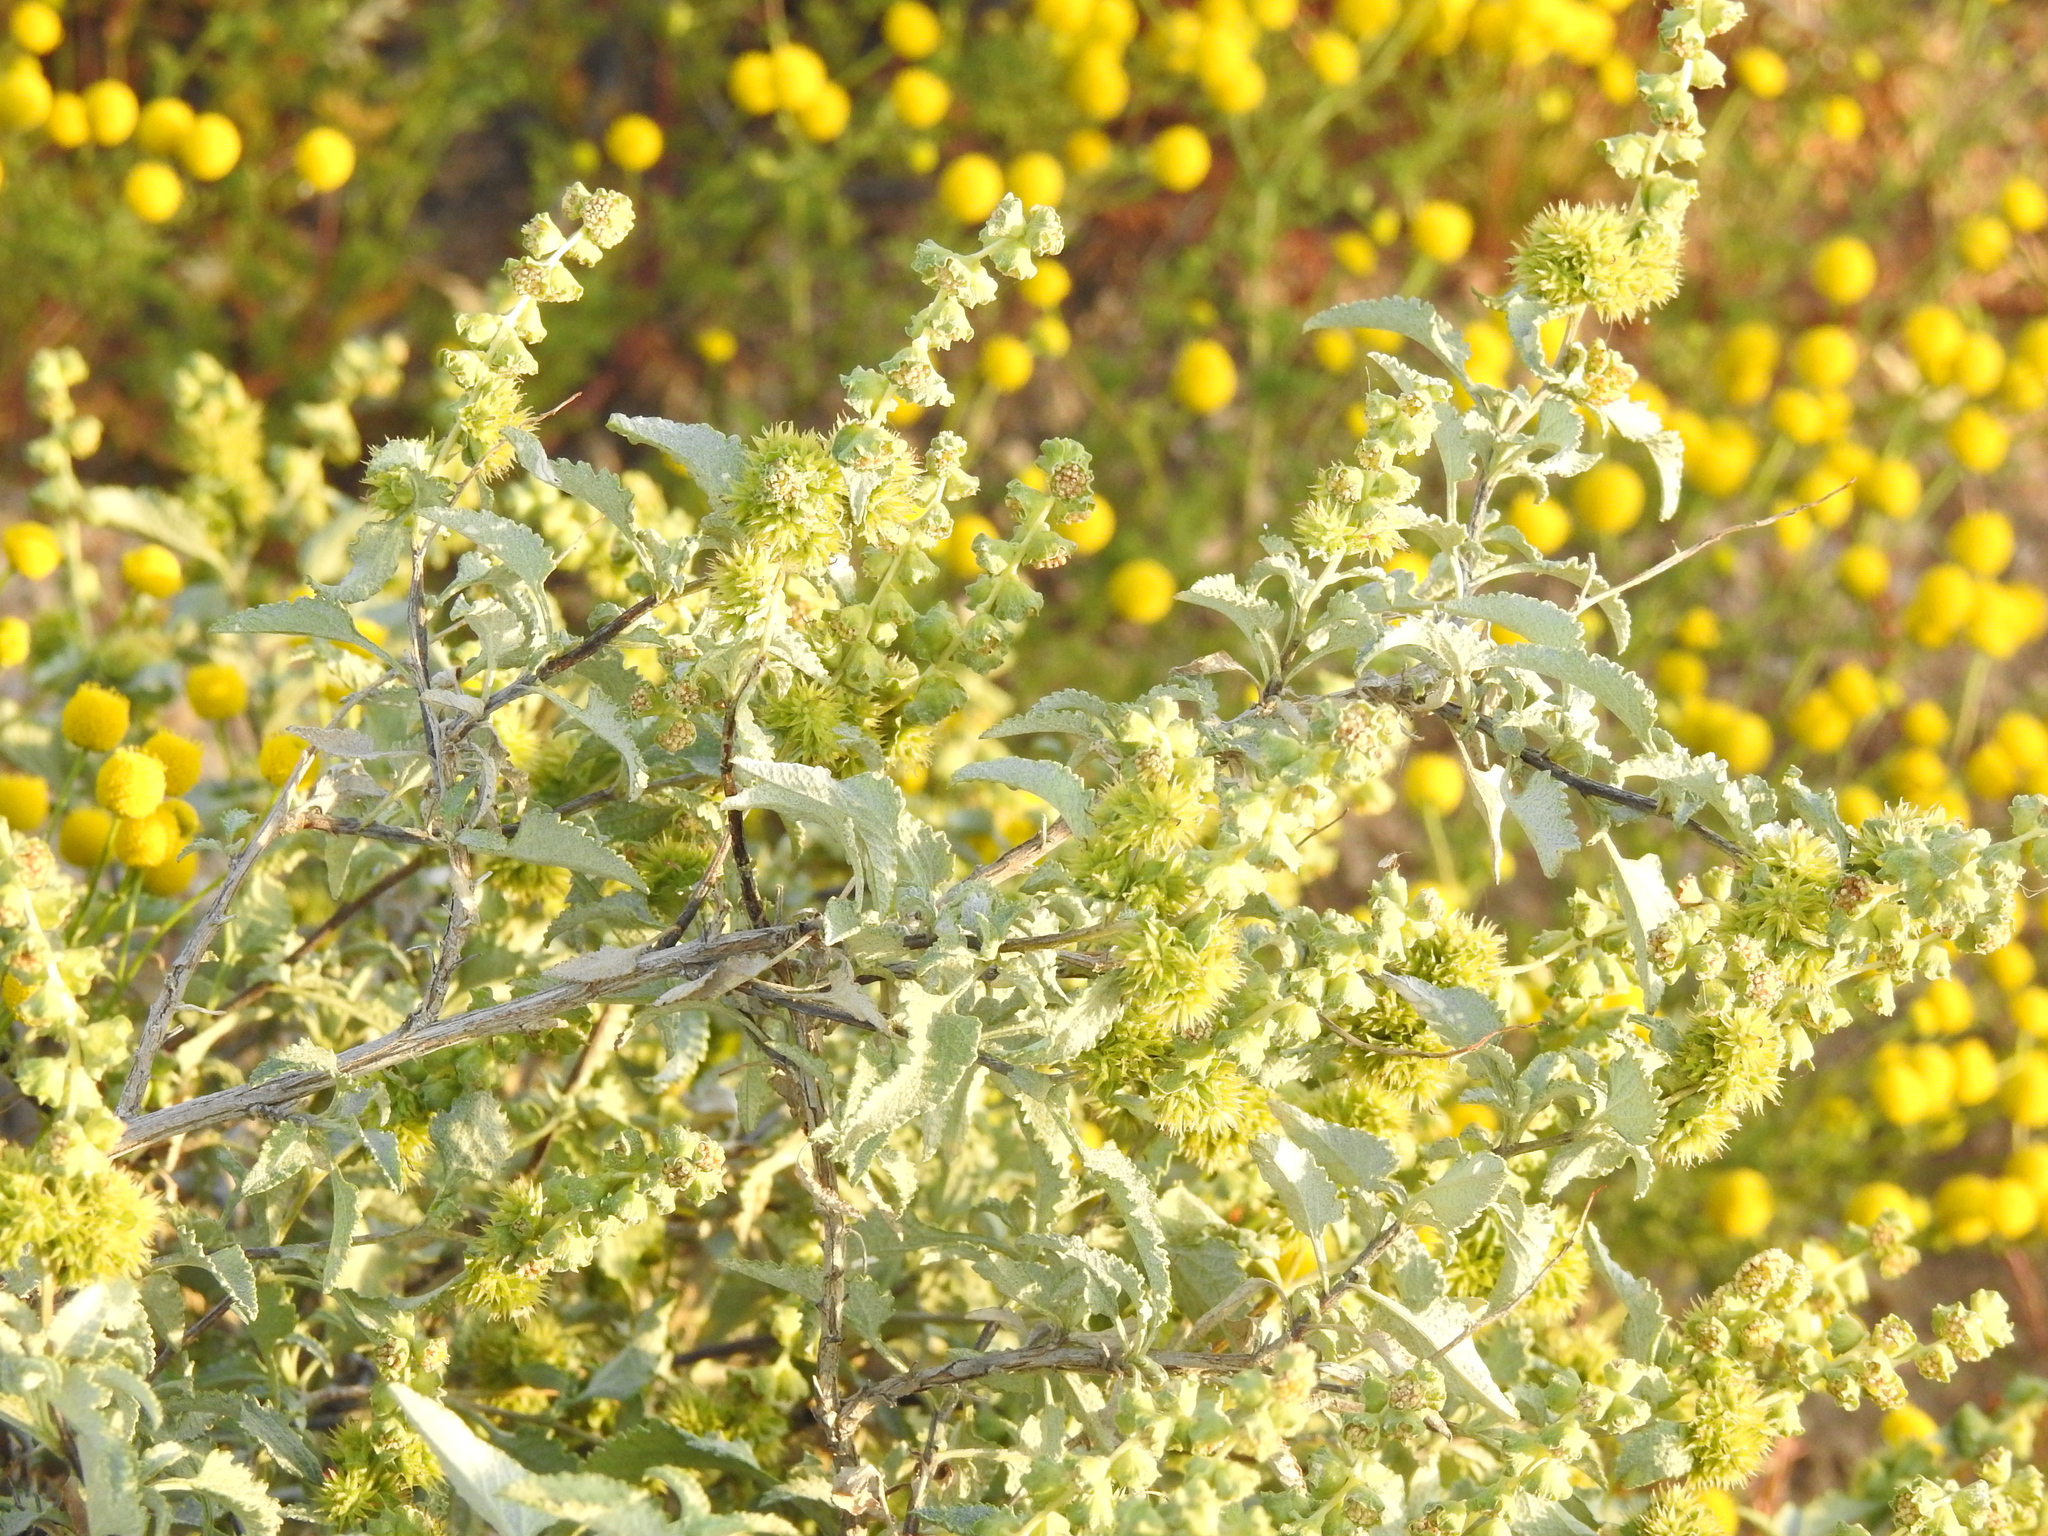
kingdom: Plantae
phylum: Tracheophyta
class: Magnoliopsida
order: Asterales
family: Asteraceae
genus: Ambrosia
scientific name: Ambrosia deltoidea
